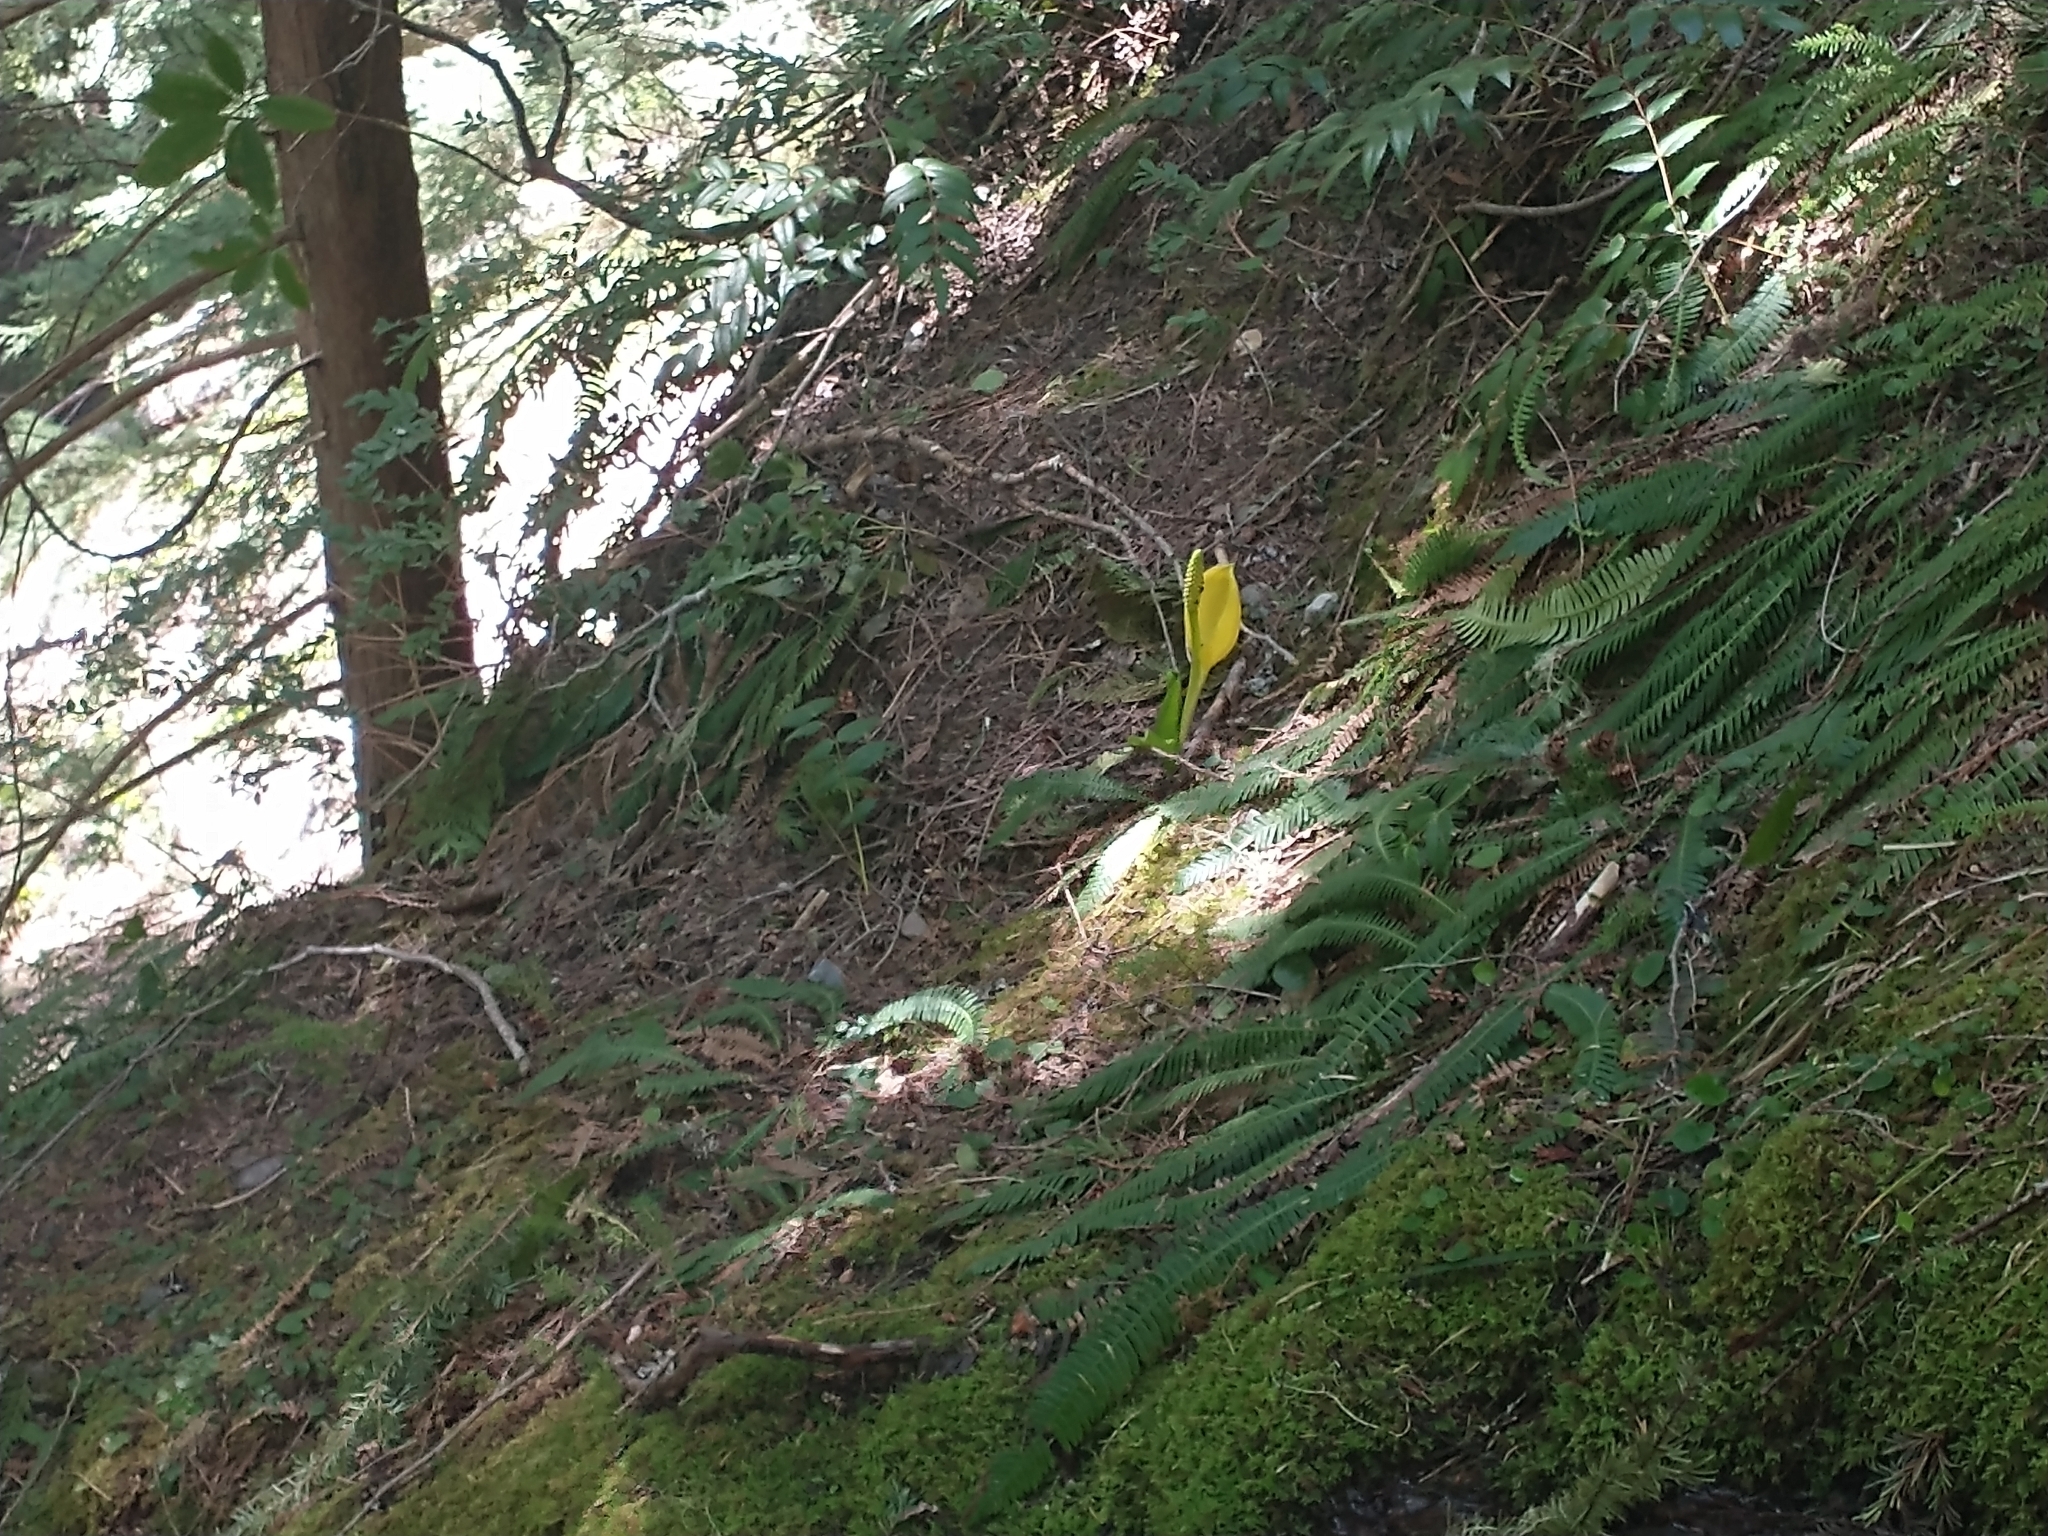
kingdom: Plantae
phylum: Tracheophyta
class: Liliopsida
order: Alismatales
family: Araceae
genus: Lysichiton
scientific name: Lysichiton americanus
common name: American skunk cabbage
